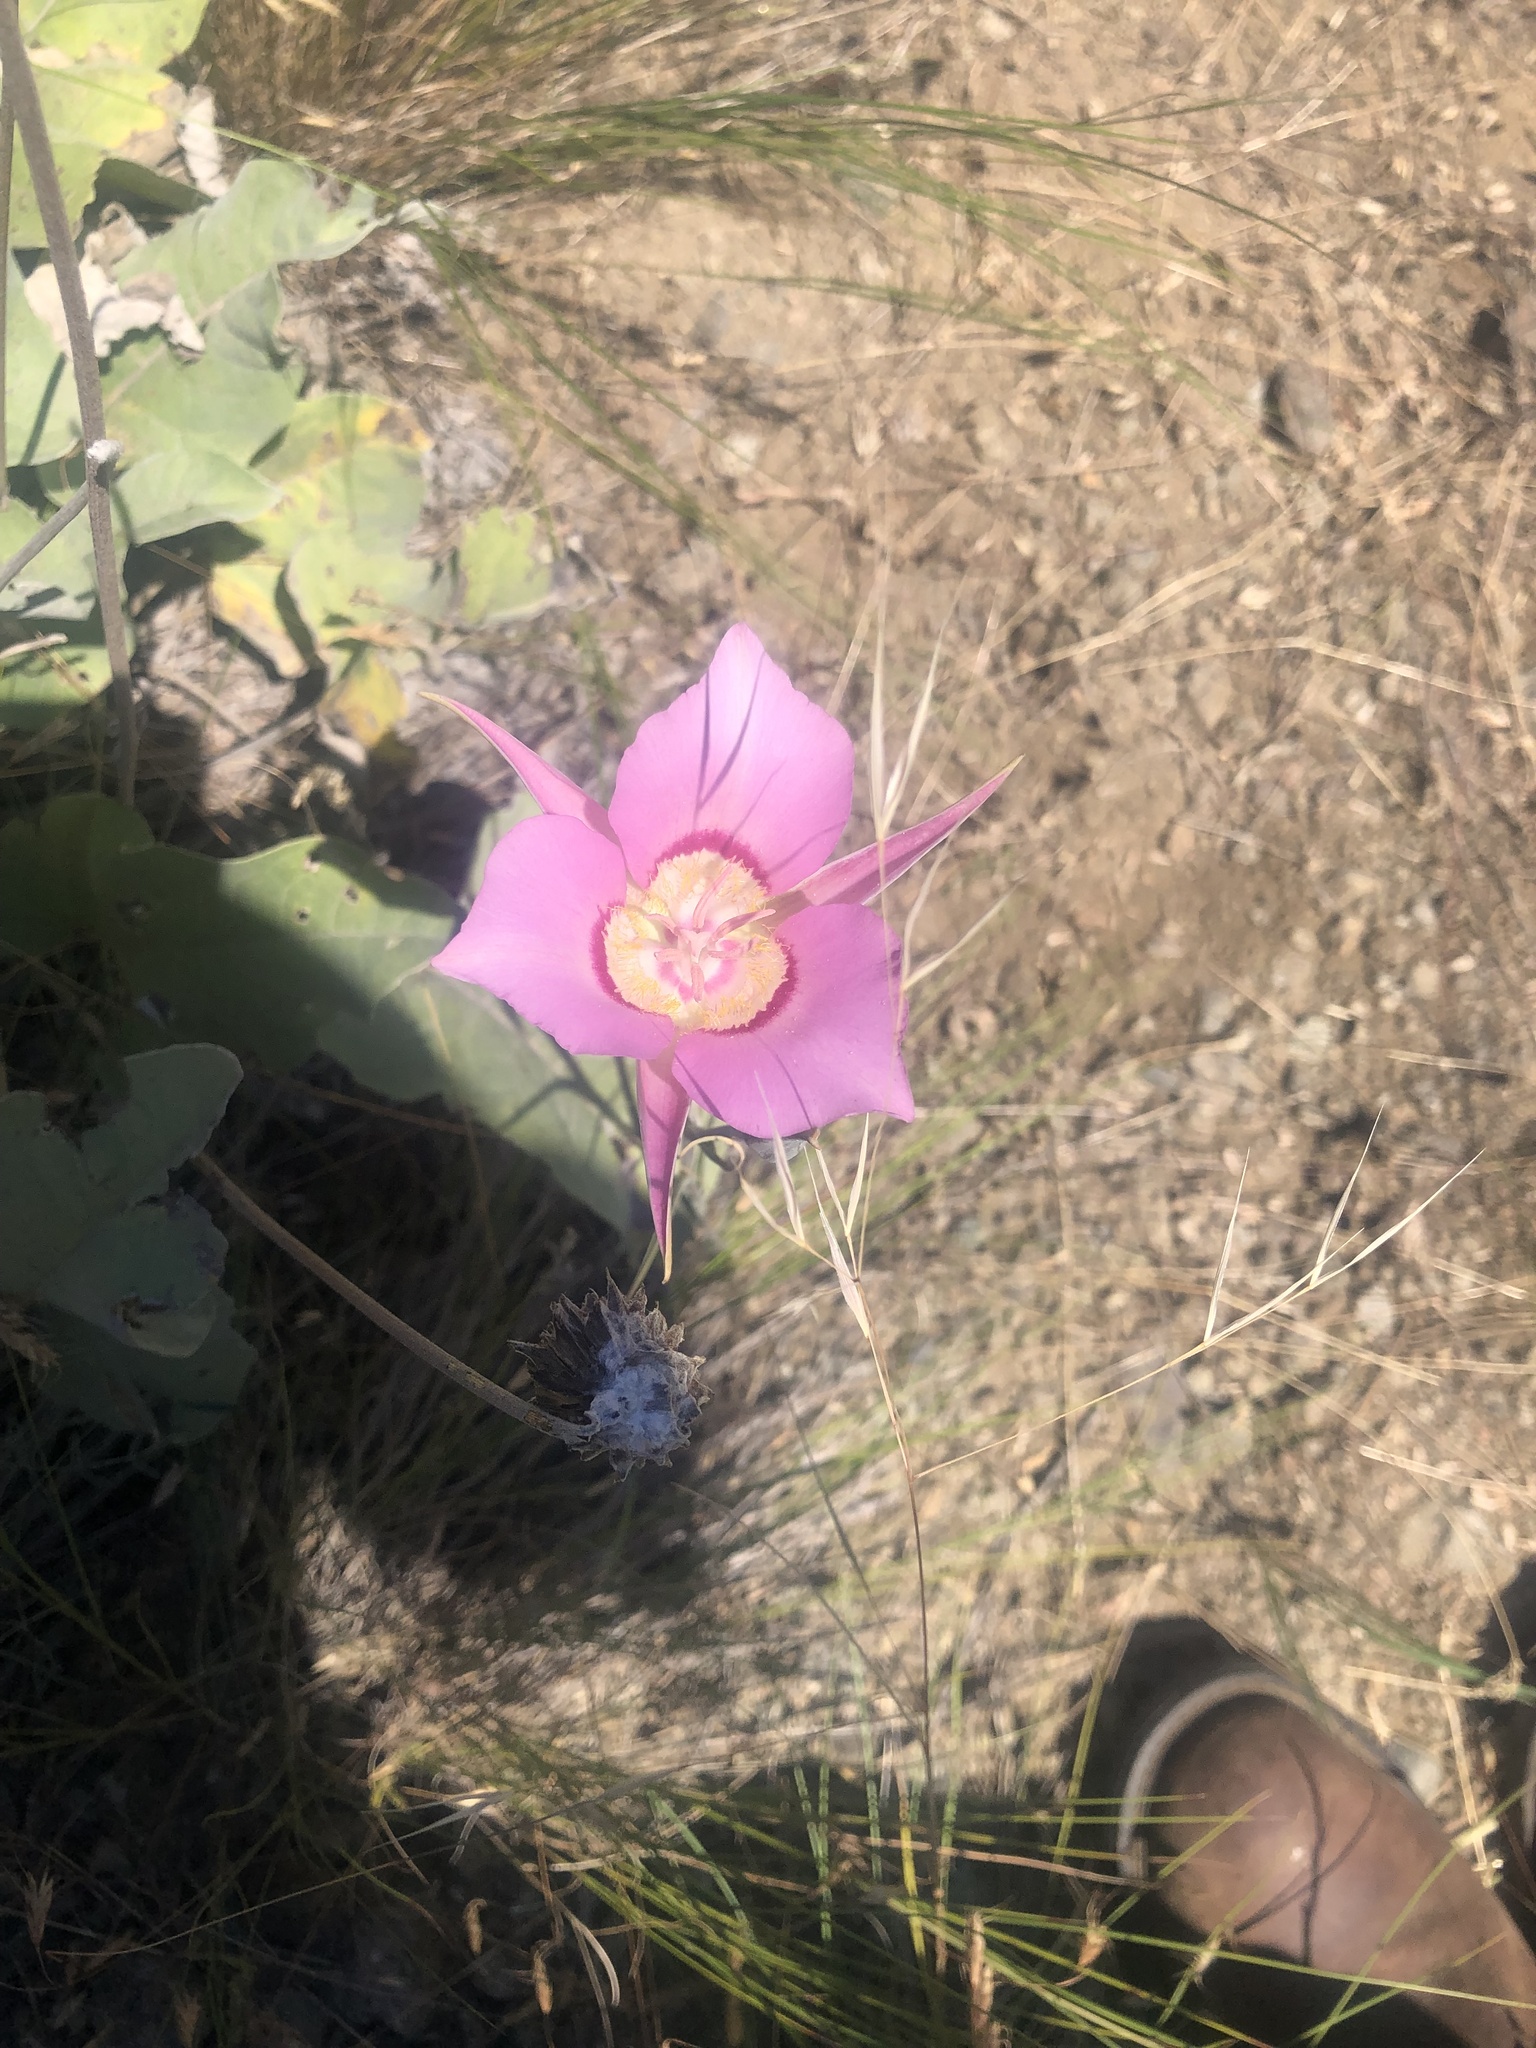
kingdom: Plantae
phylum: Tracheophyta
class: Liliopsida
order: Liliales
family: Liliaceae
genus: Calochortus
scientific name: Calochortus macrocarpus
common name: Green-band mariposa lily
